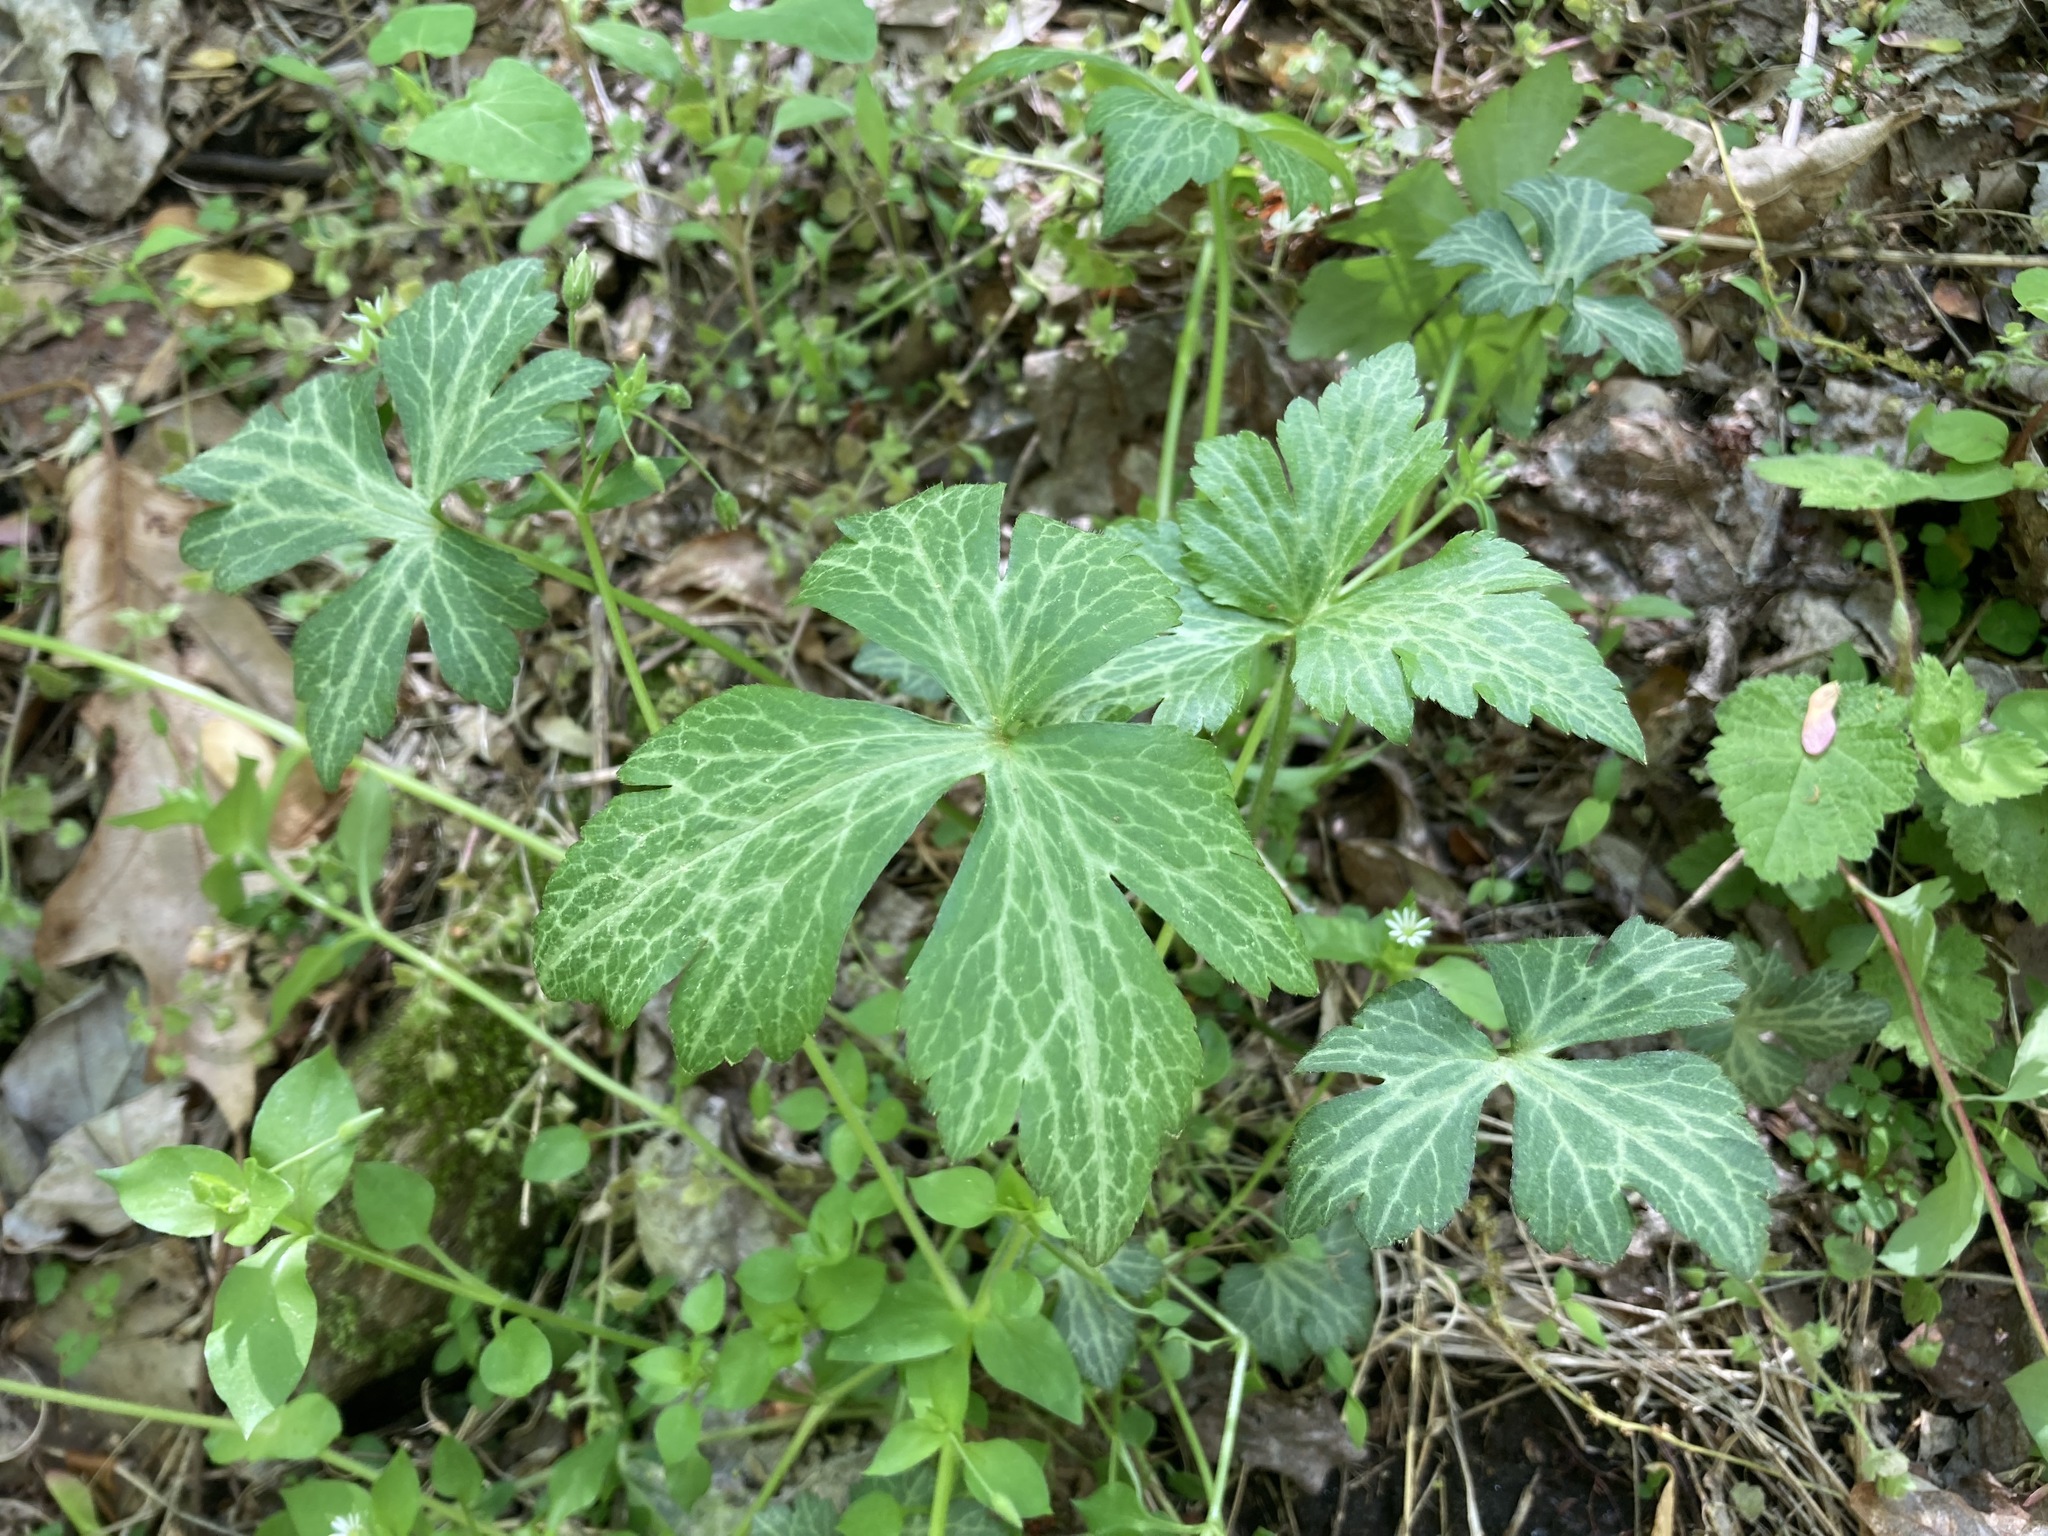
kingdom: Plantae
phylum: Tracheophyta
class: Magnoliopsida
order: Ranunculales
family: Ranunculaceae
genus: Ranunculus
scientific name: Ranunculus recurvatus
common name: Blisterwort
